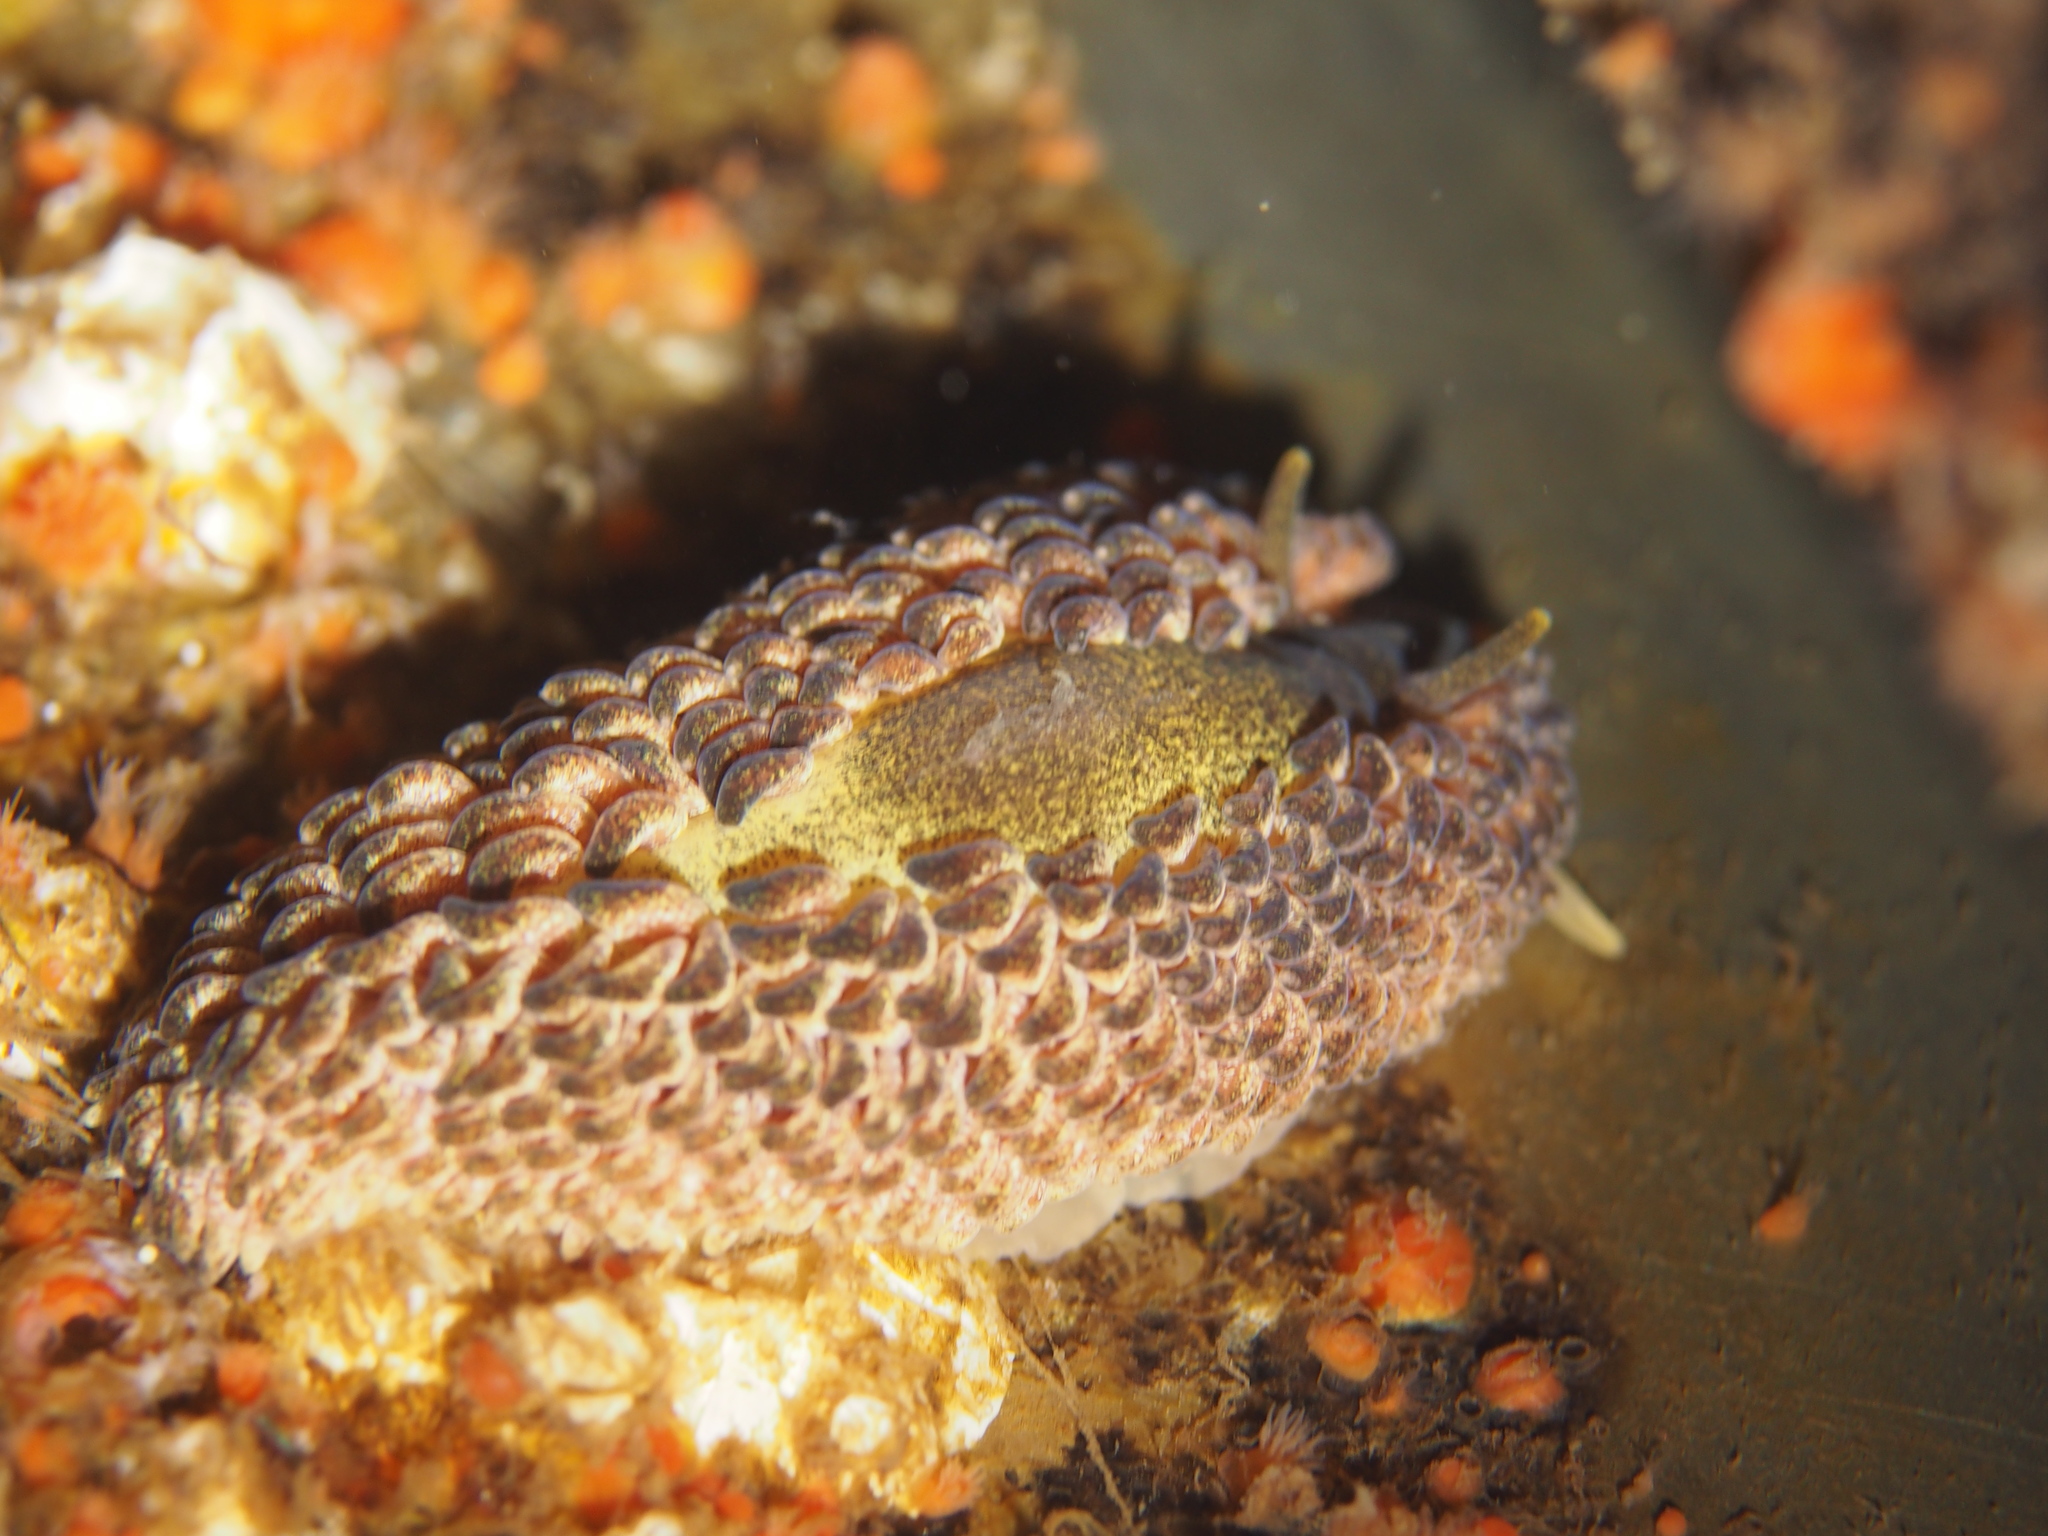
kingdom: Animalia
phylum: Mollusca
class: Gastropoda
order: Nudibranchia
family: Aeolidiidae
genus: Aeolidia
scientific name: Aeolidia papillosa
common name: Common grey sea slug
